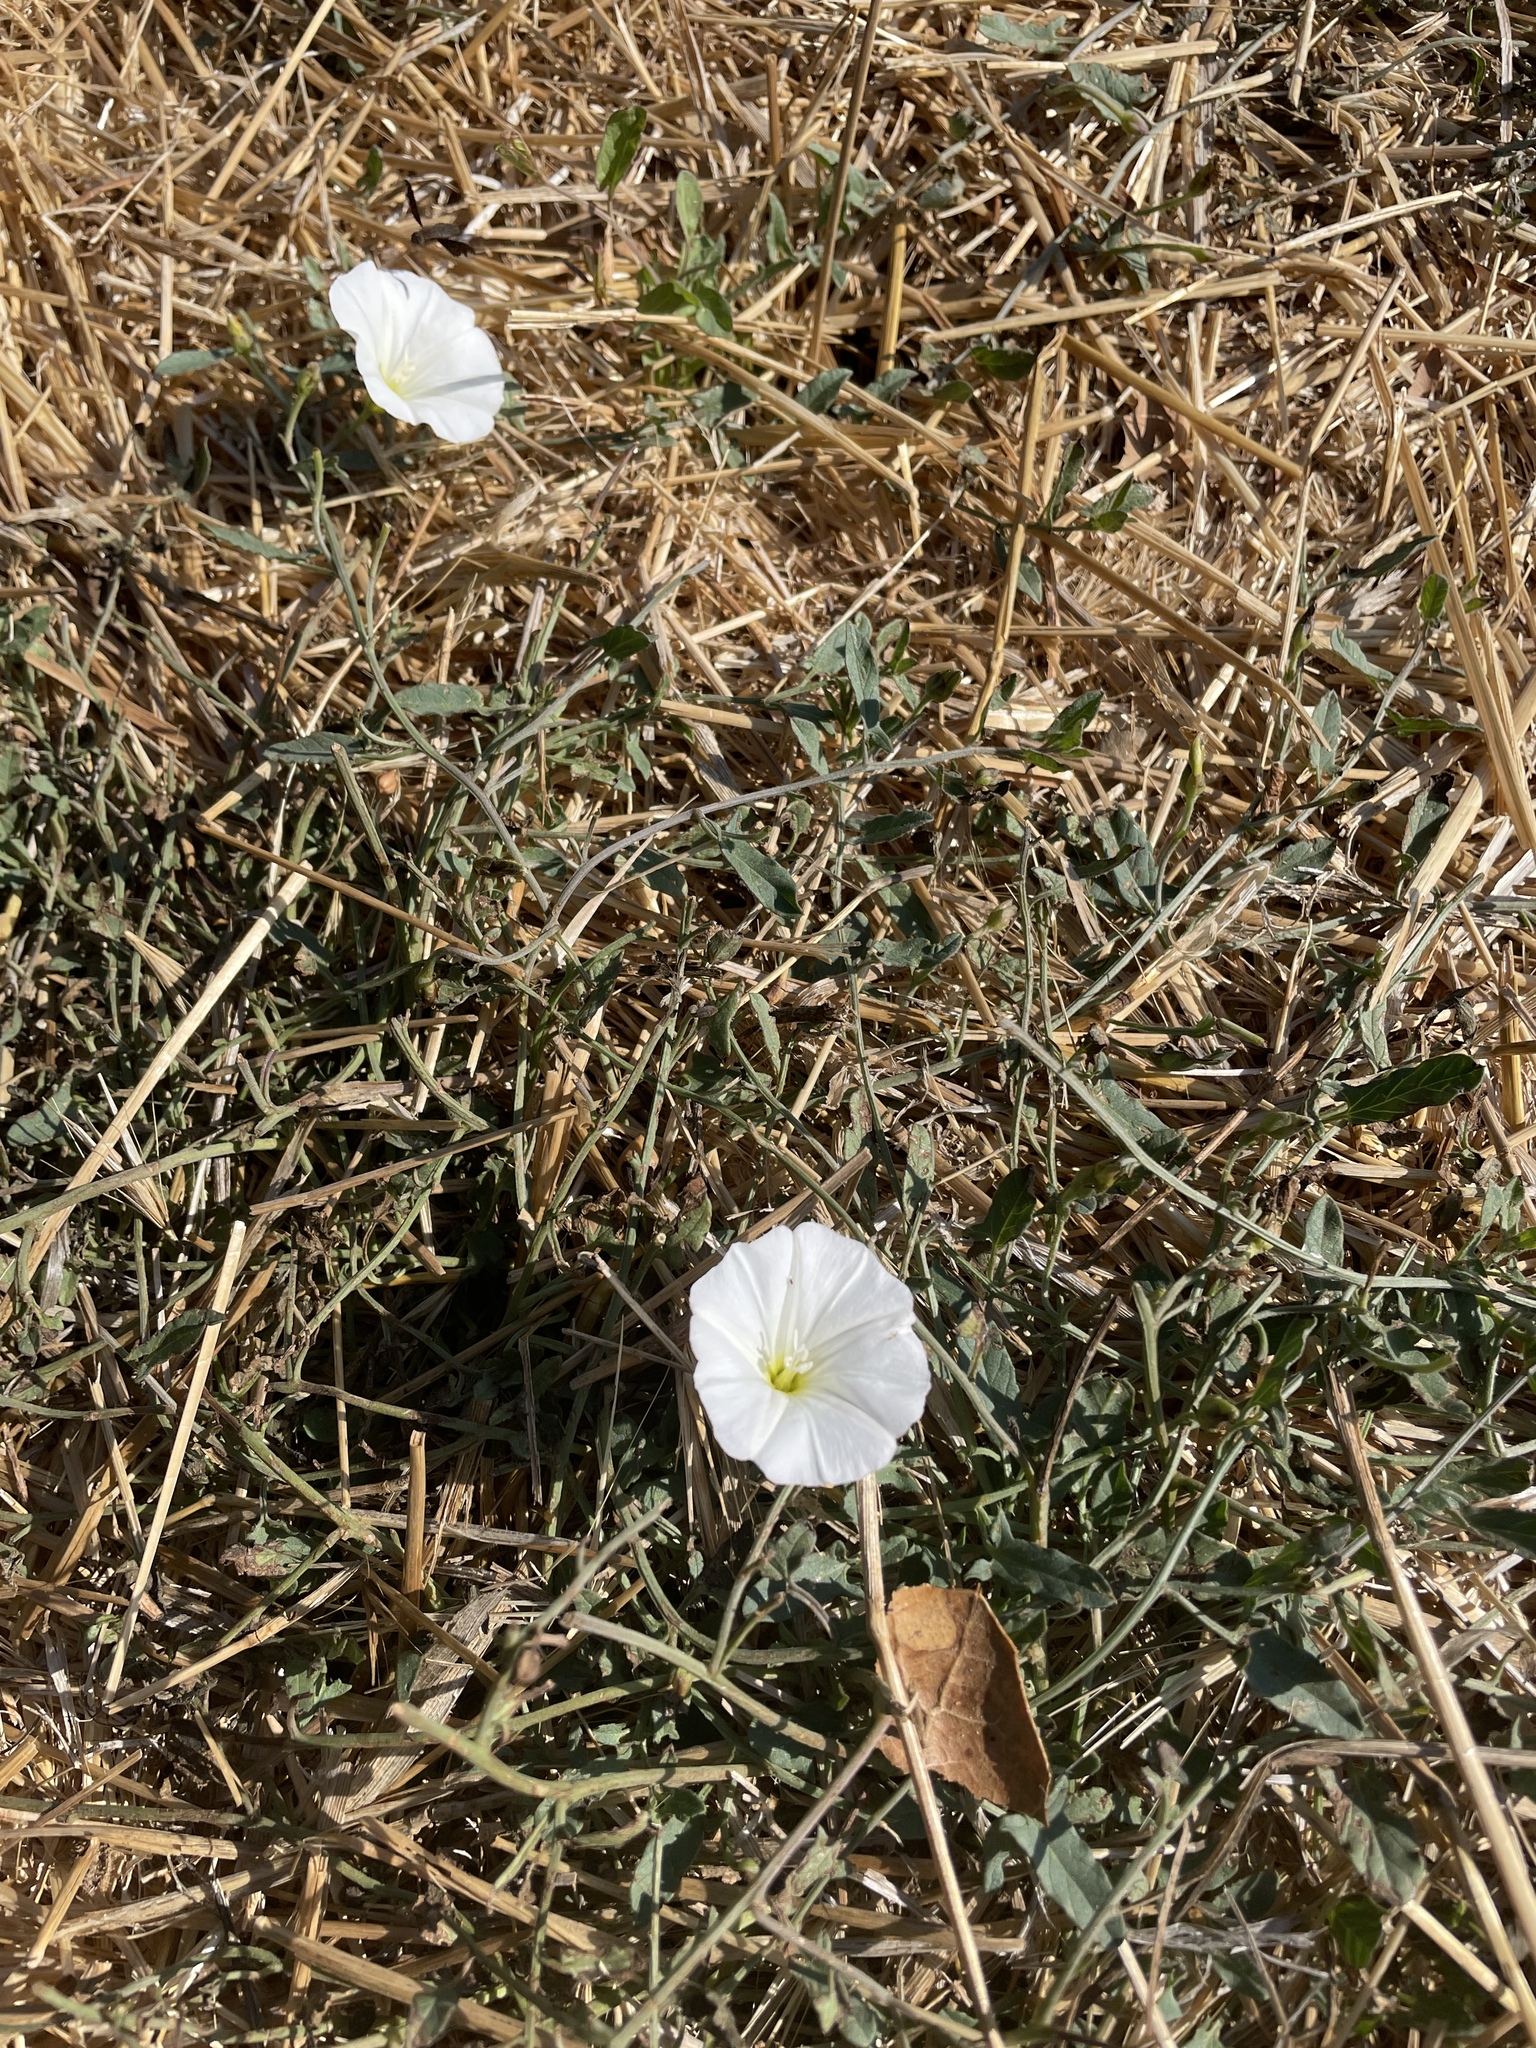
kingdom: Plantae
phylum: Tracheophyta
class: Magnoliopsida
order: Solanales
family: Convolvulaceae
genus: Convolvulus
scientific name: Convolvulus arvensis
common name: Field bindweed
